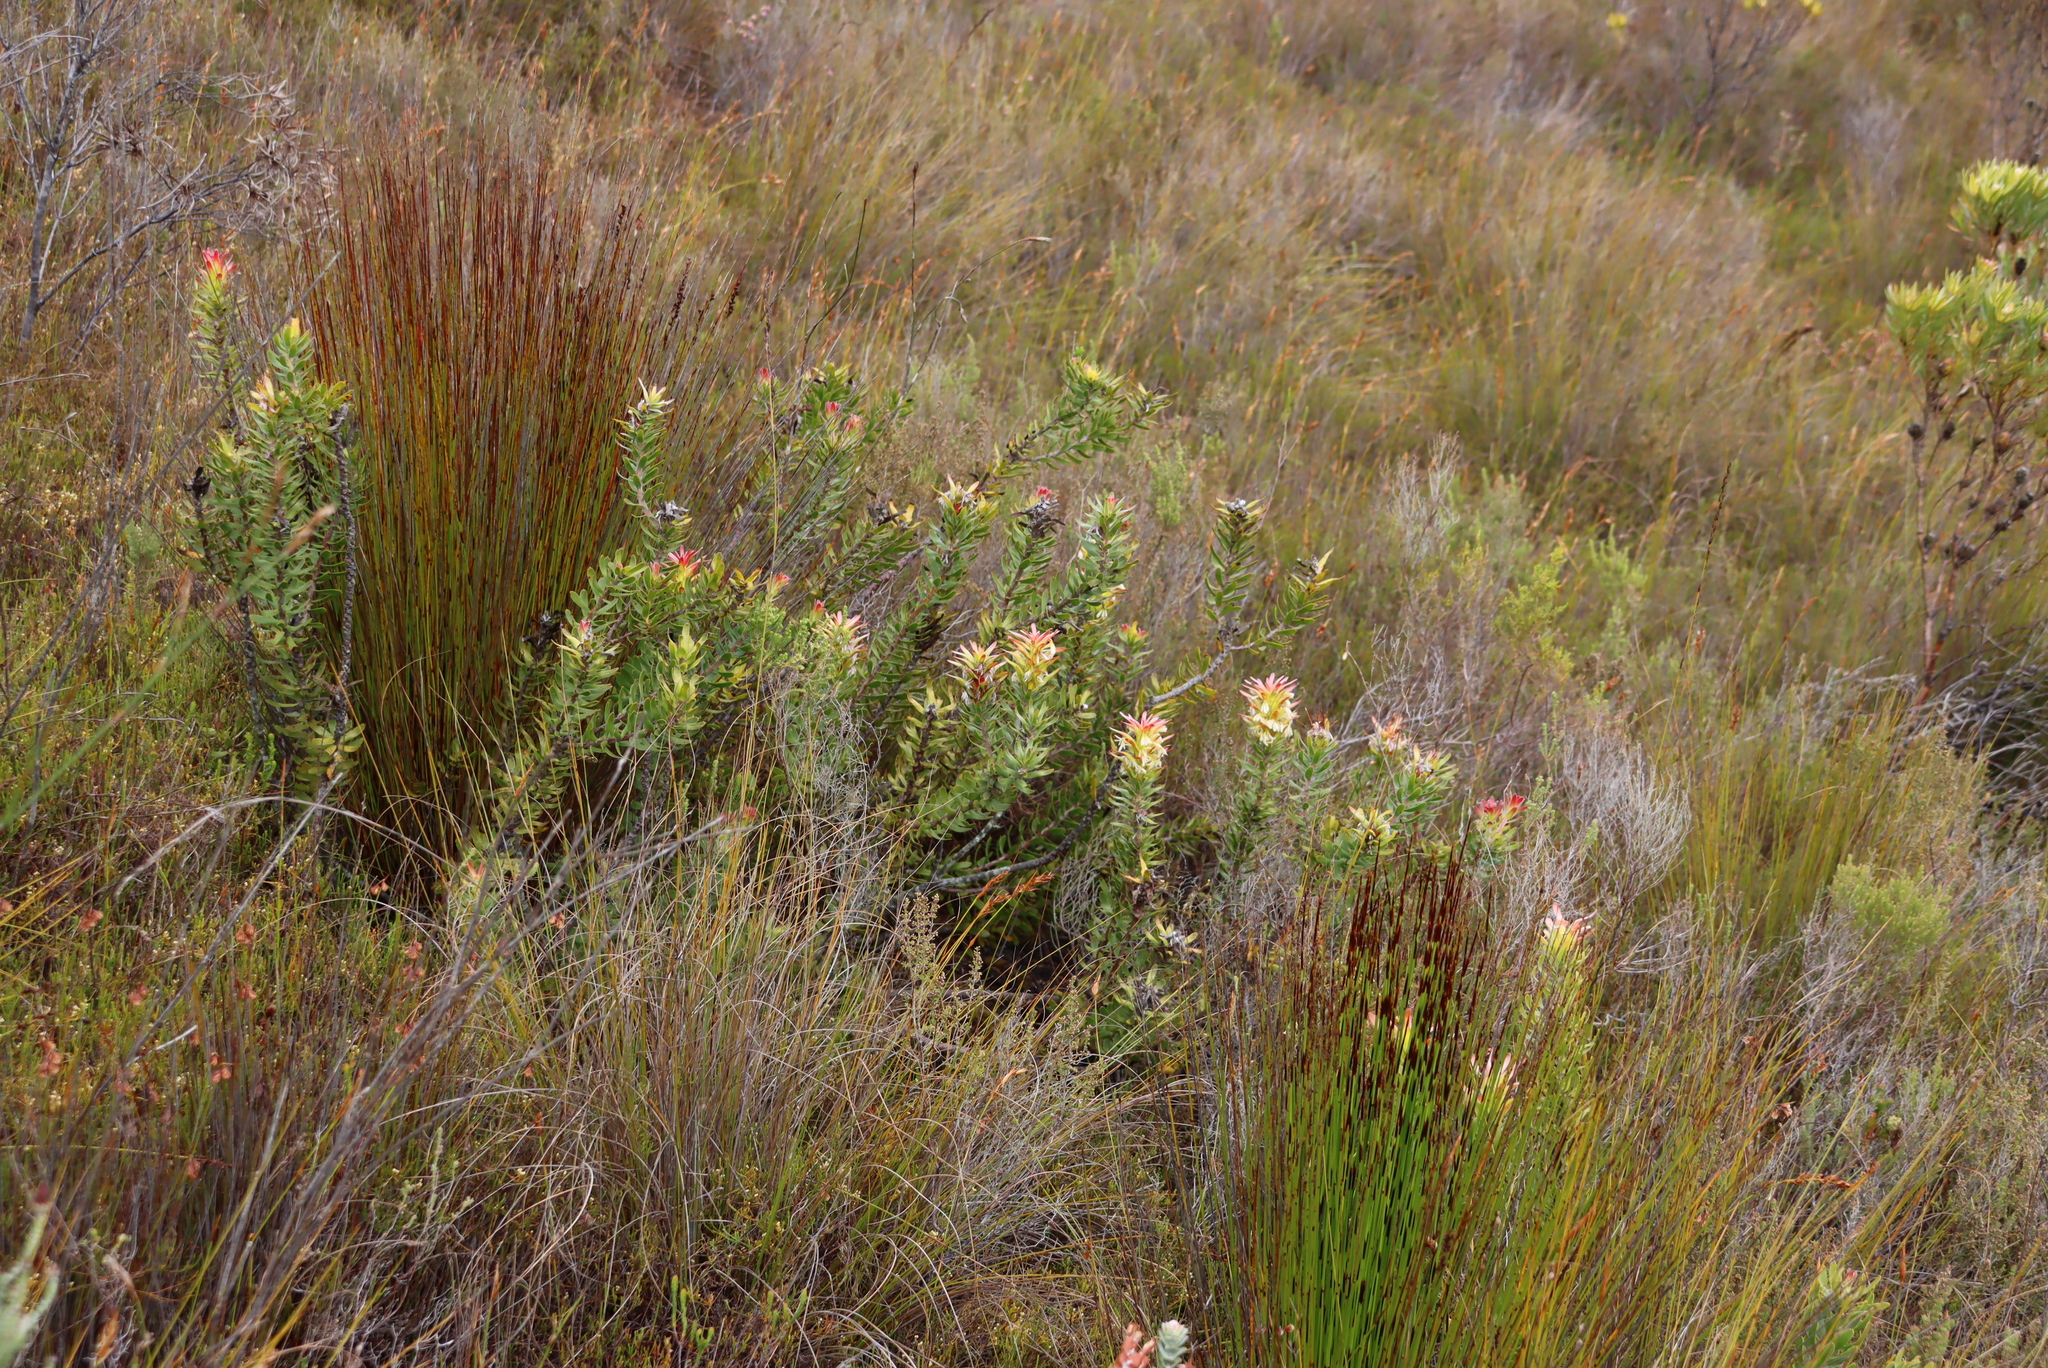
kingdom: Plantae
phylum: Tracheophyta
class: Magnoliopsida
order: Proteales
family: Proteaceae
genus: Mimetes
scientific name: Mimetes cucullatus
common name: Common pagoda
